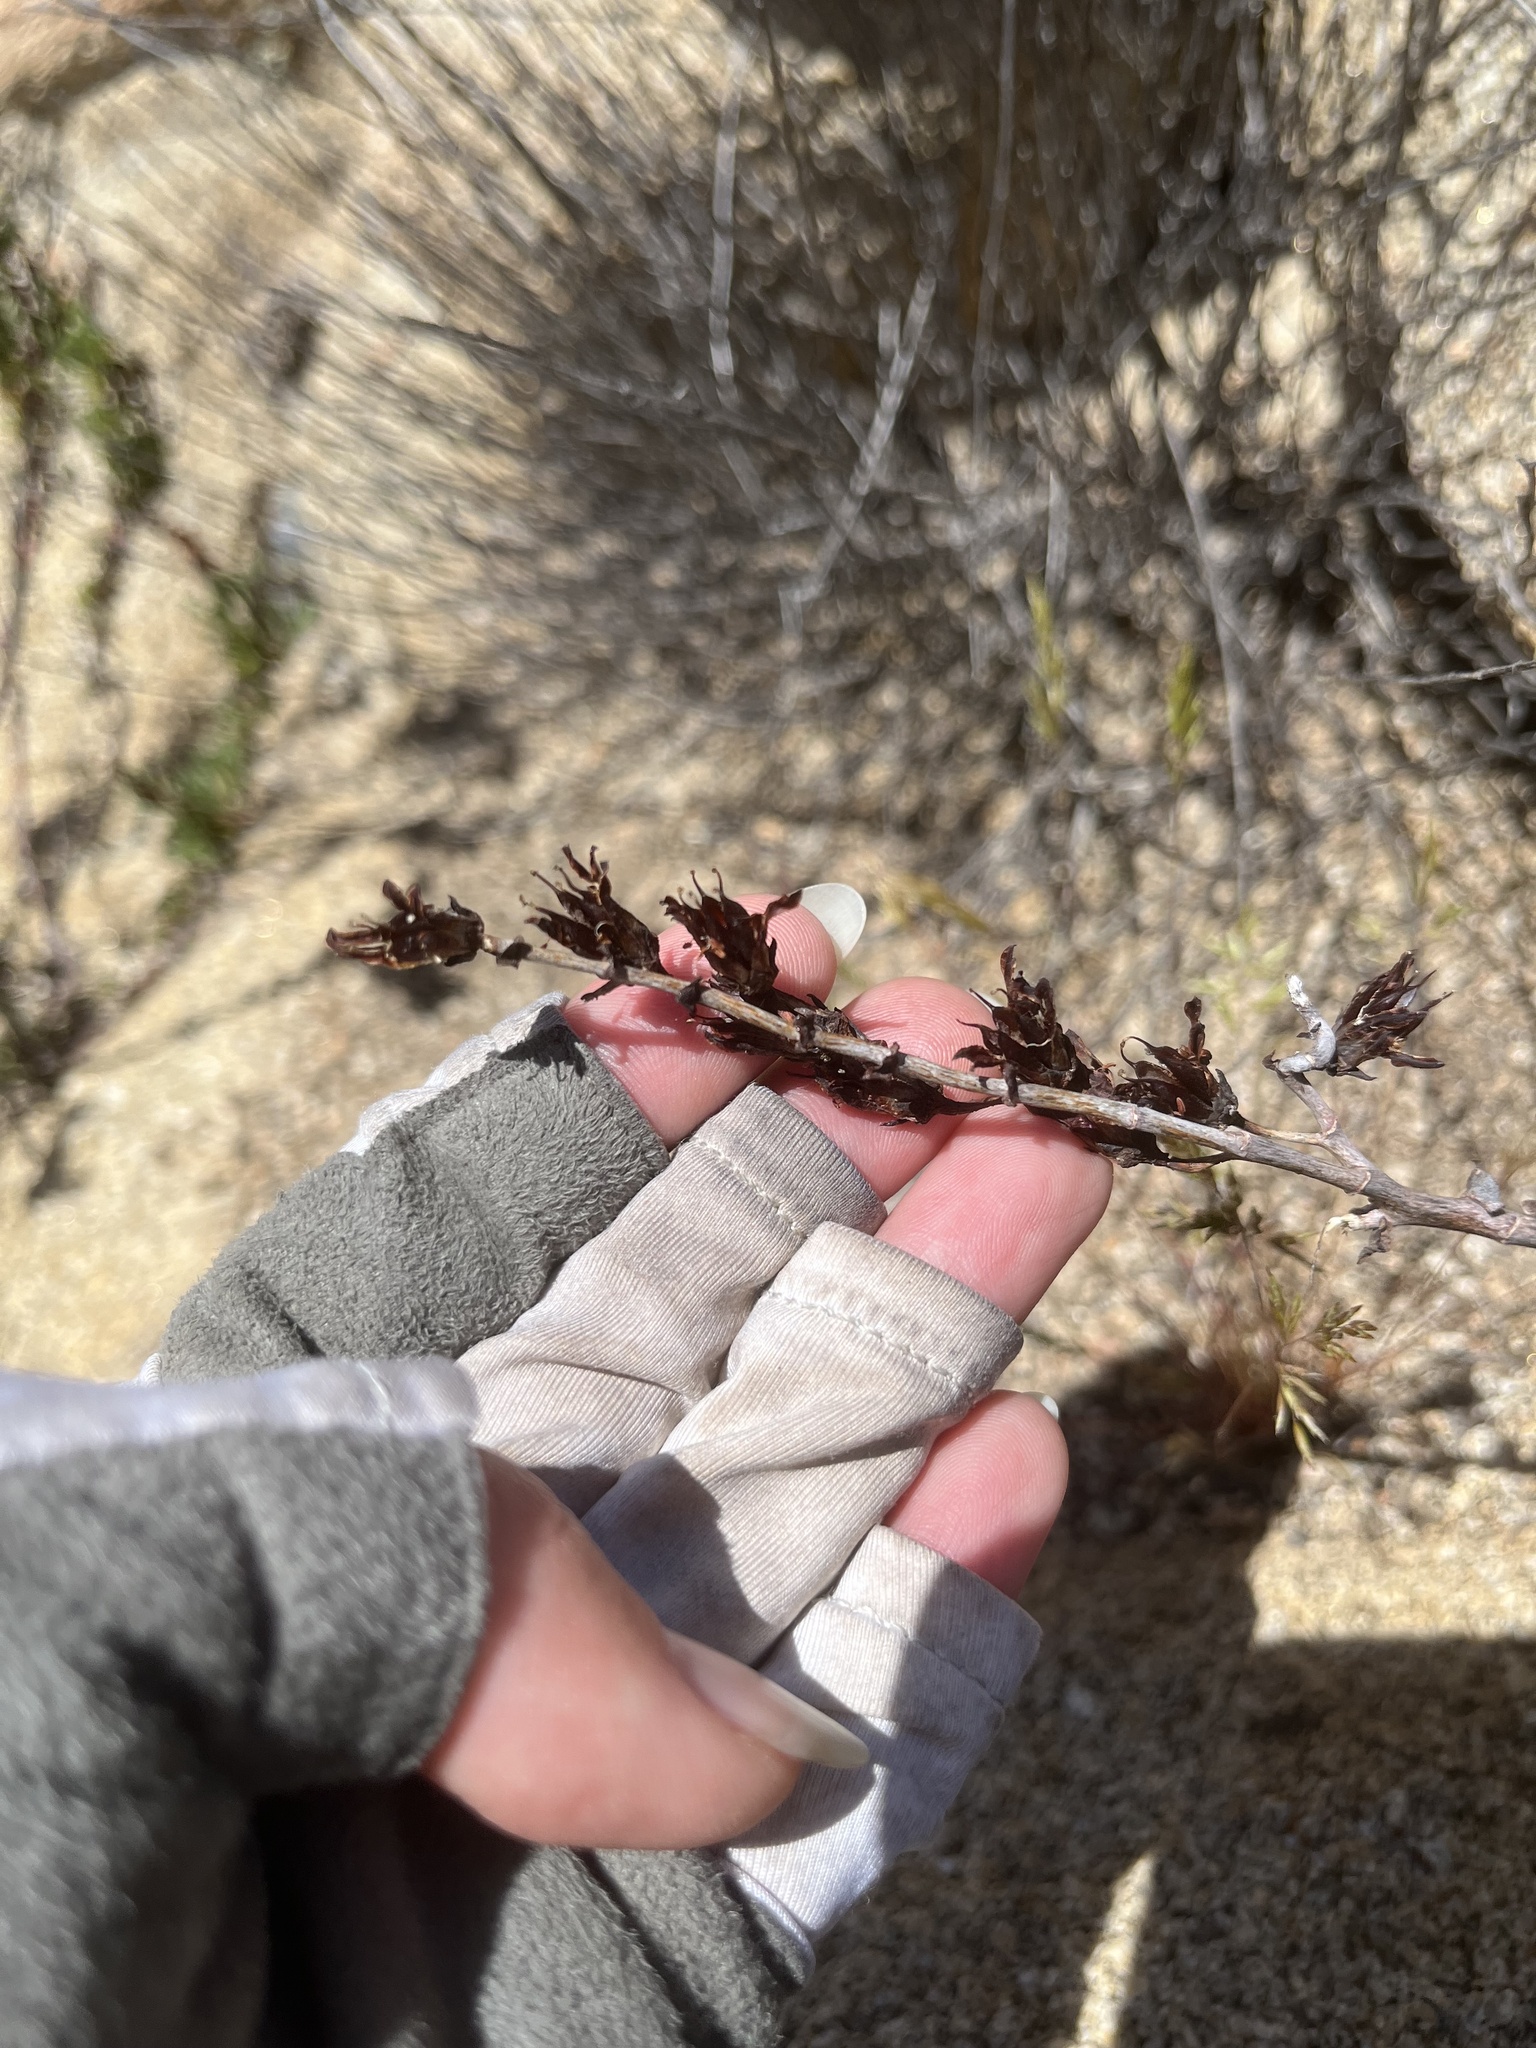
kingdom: Plantae
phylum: Tracheophyta
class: Magnoliopsida
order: Saxifragales
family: Crassulaceae
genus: Dudleya
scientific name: Dudleya arizonica
